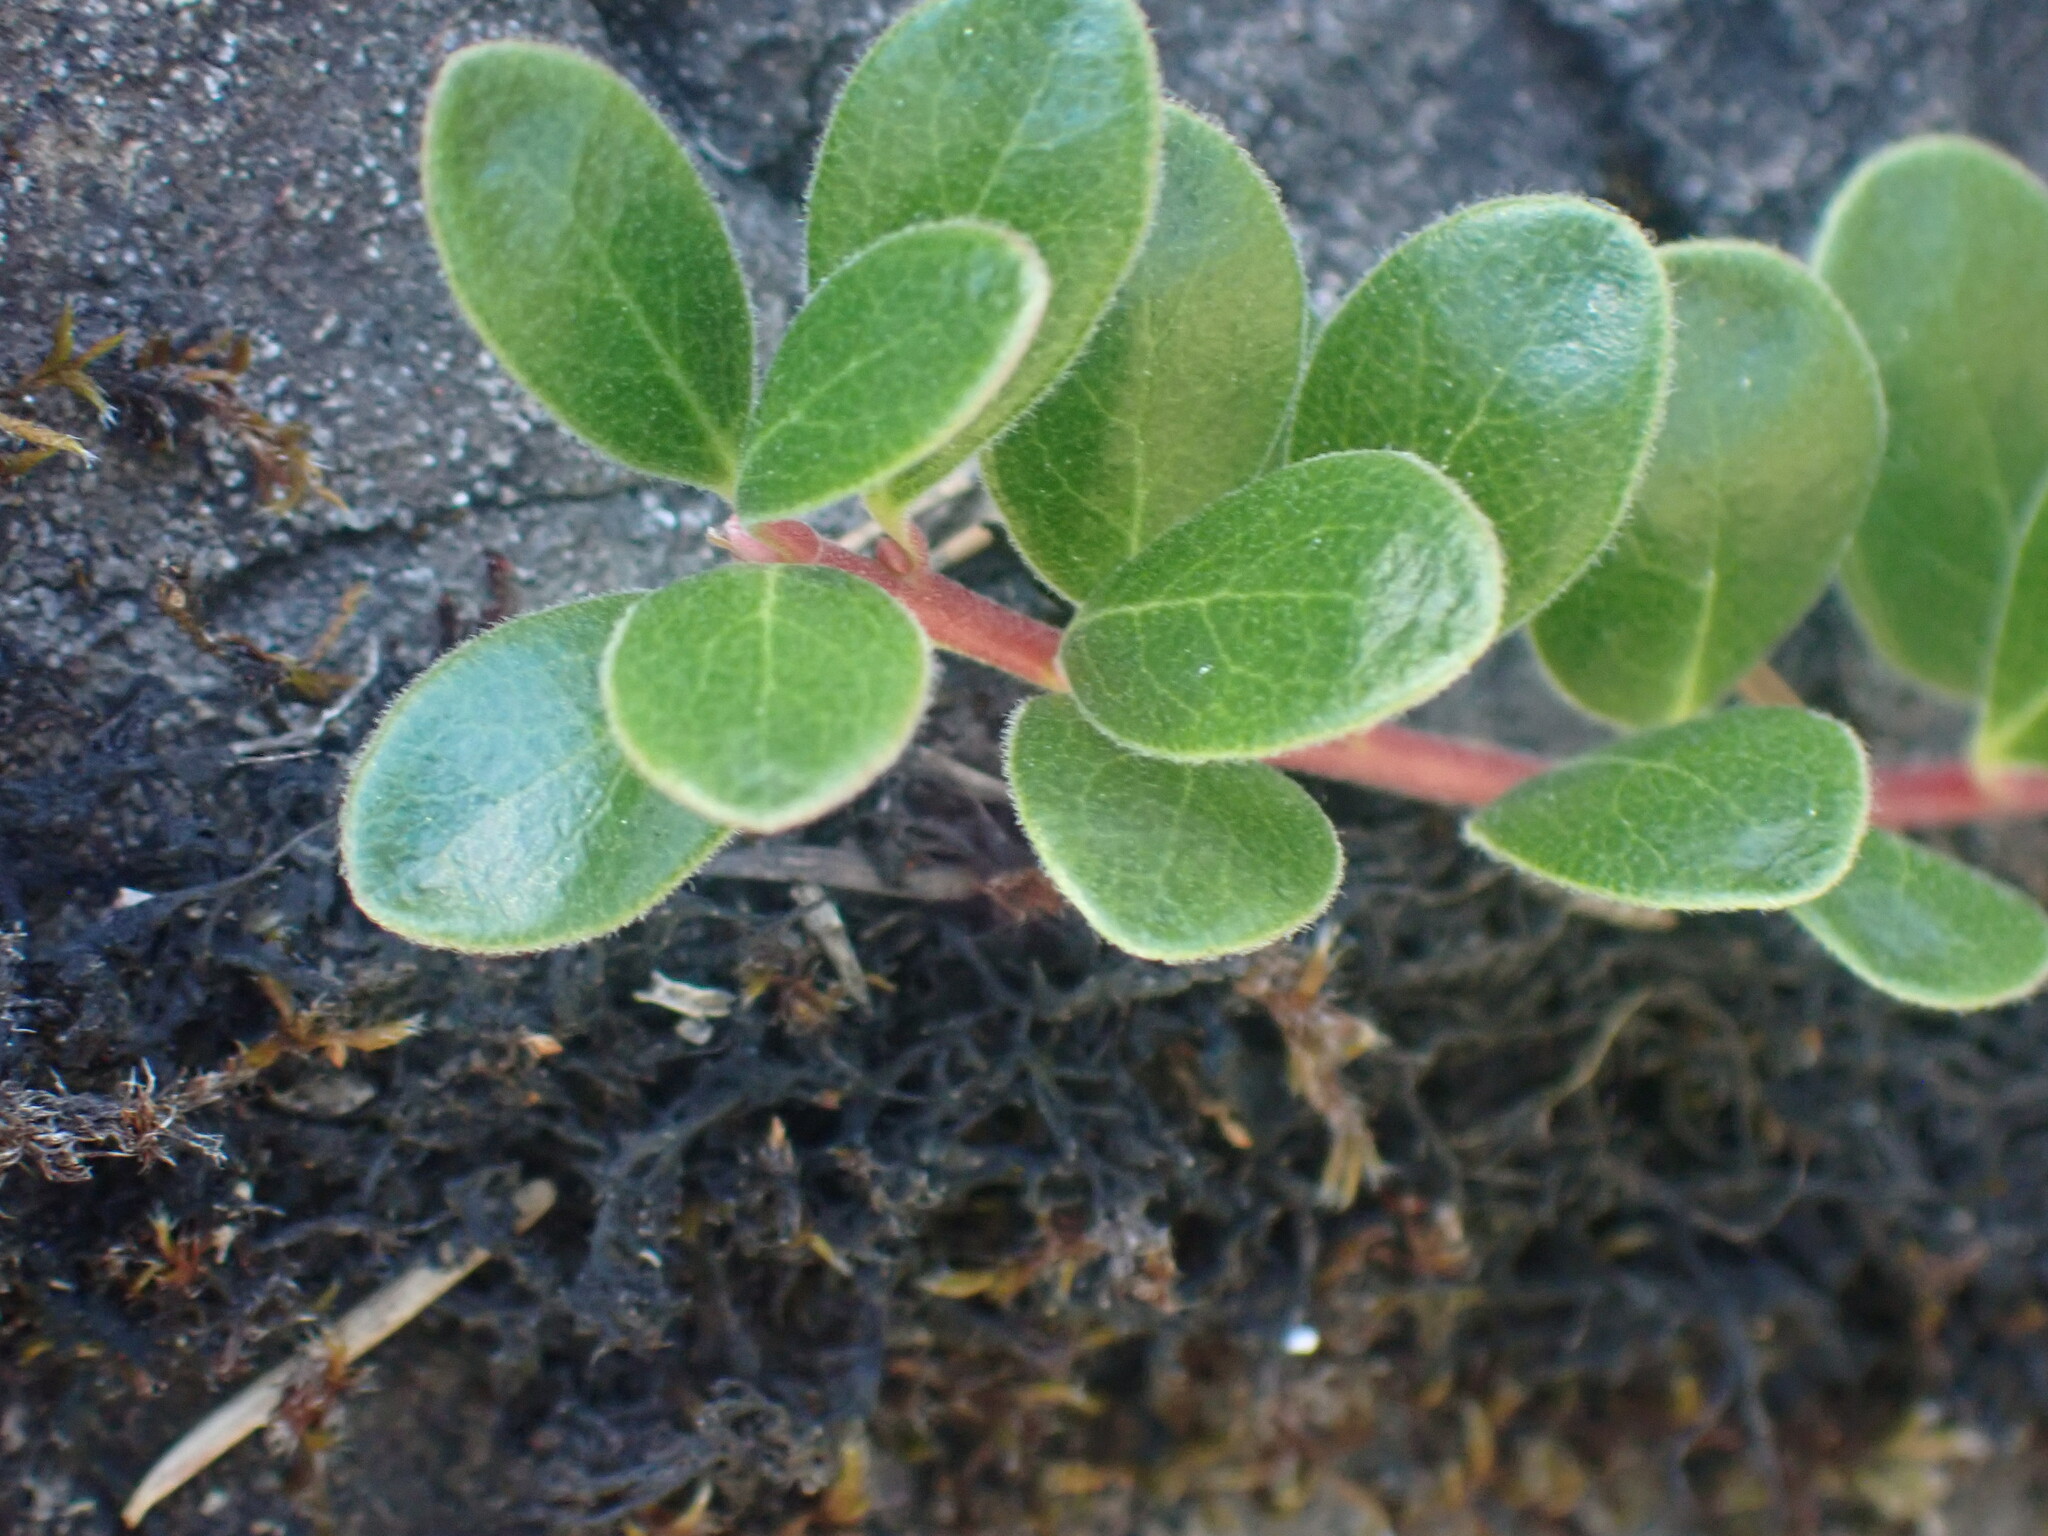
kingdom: Plantae
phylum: Tracheophyta
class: Magnoliopsida
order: Ericales
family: Ericaceae
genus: Arctostaphylos
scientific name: Arctostaphylos uva-ursi
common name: Bearberry
